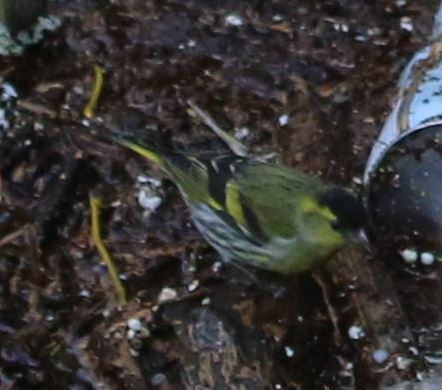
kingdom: Animalia
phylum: Chordata
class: Aves
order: Passeriformes
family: Fringillidae
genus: Spinus
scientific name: Spinus spinus
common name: Eurasian siskin
